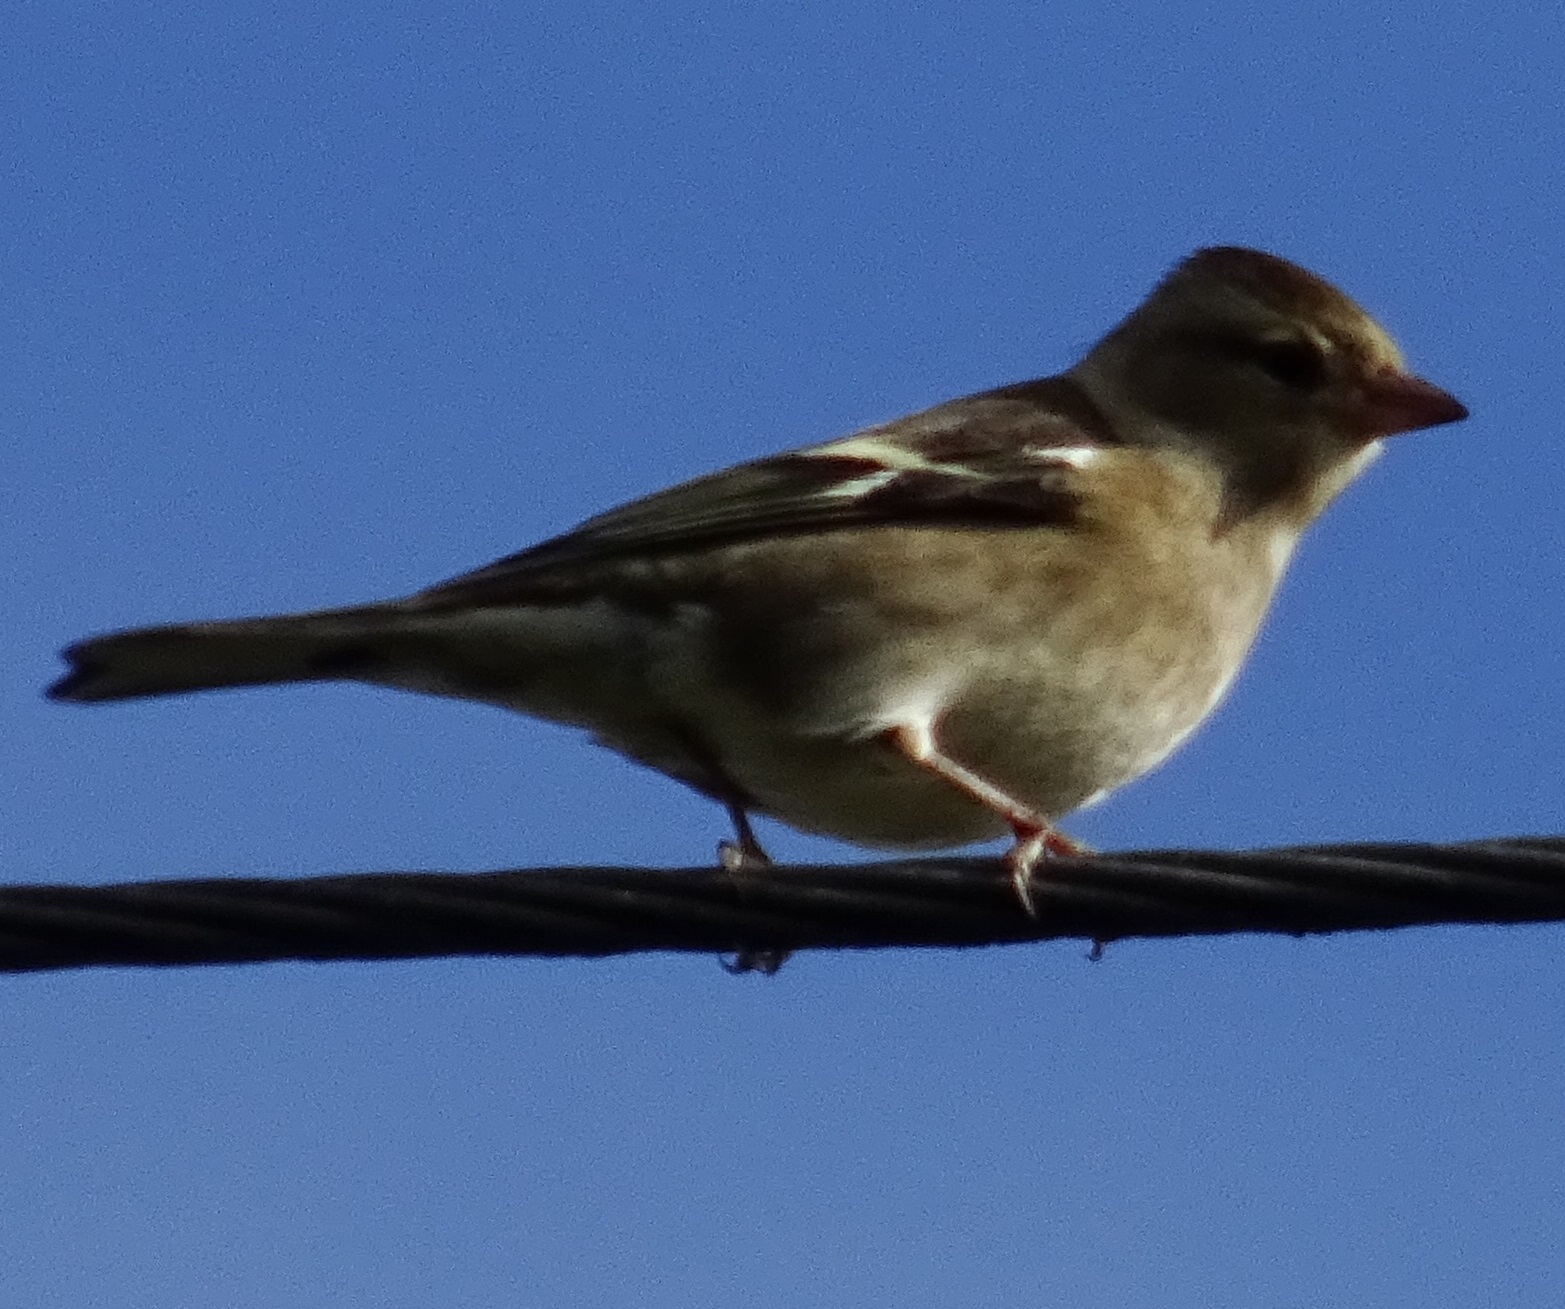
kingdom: Animalia
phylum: Chordata
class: Aves
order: Passeriformes
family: Fringillidae
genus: Fringilla
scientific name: Fringilla coelebs
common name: Common chaffinch
